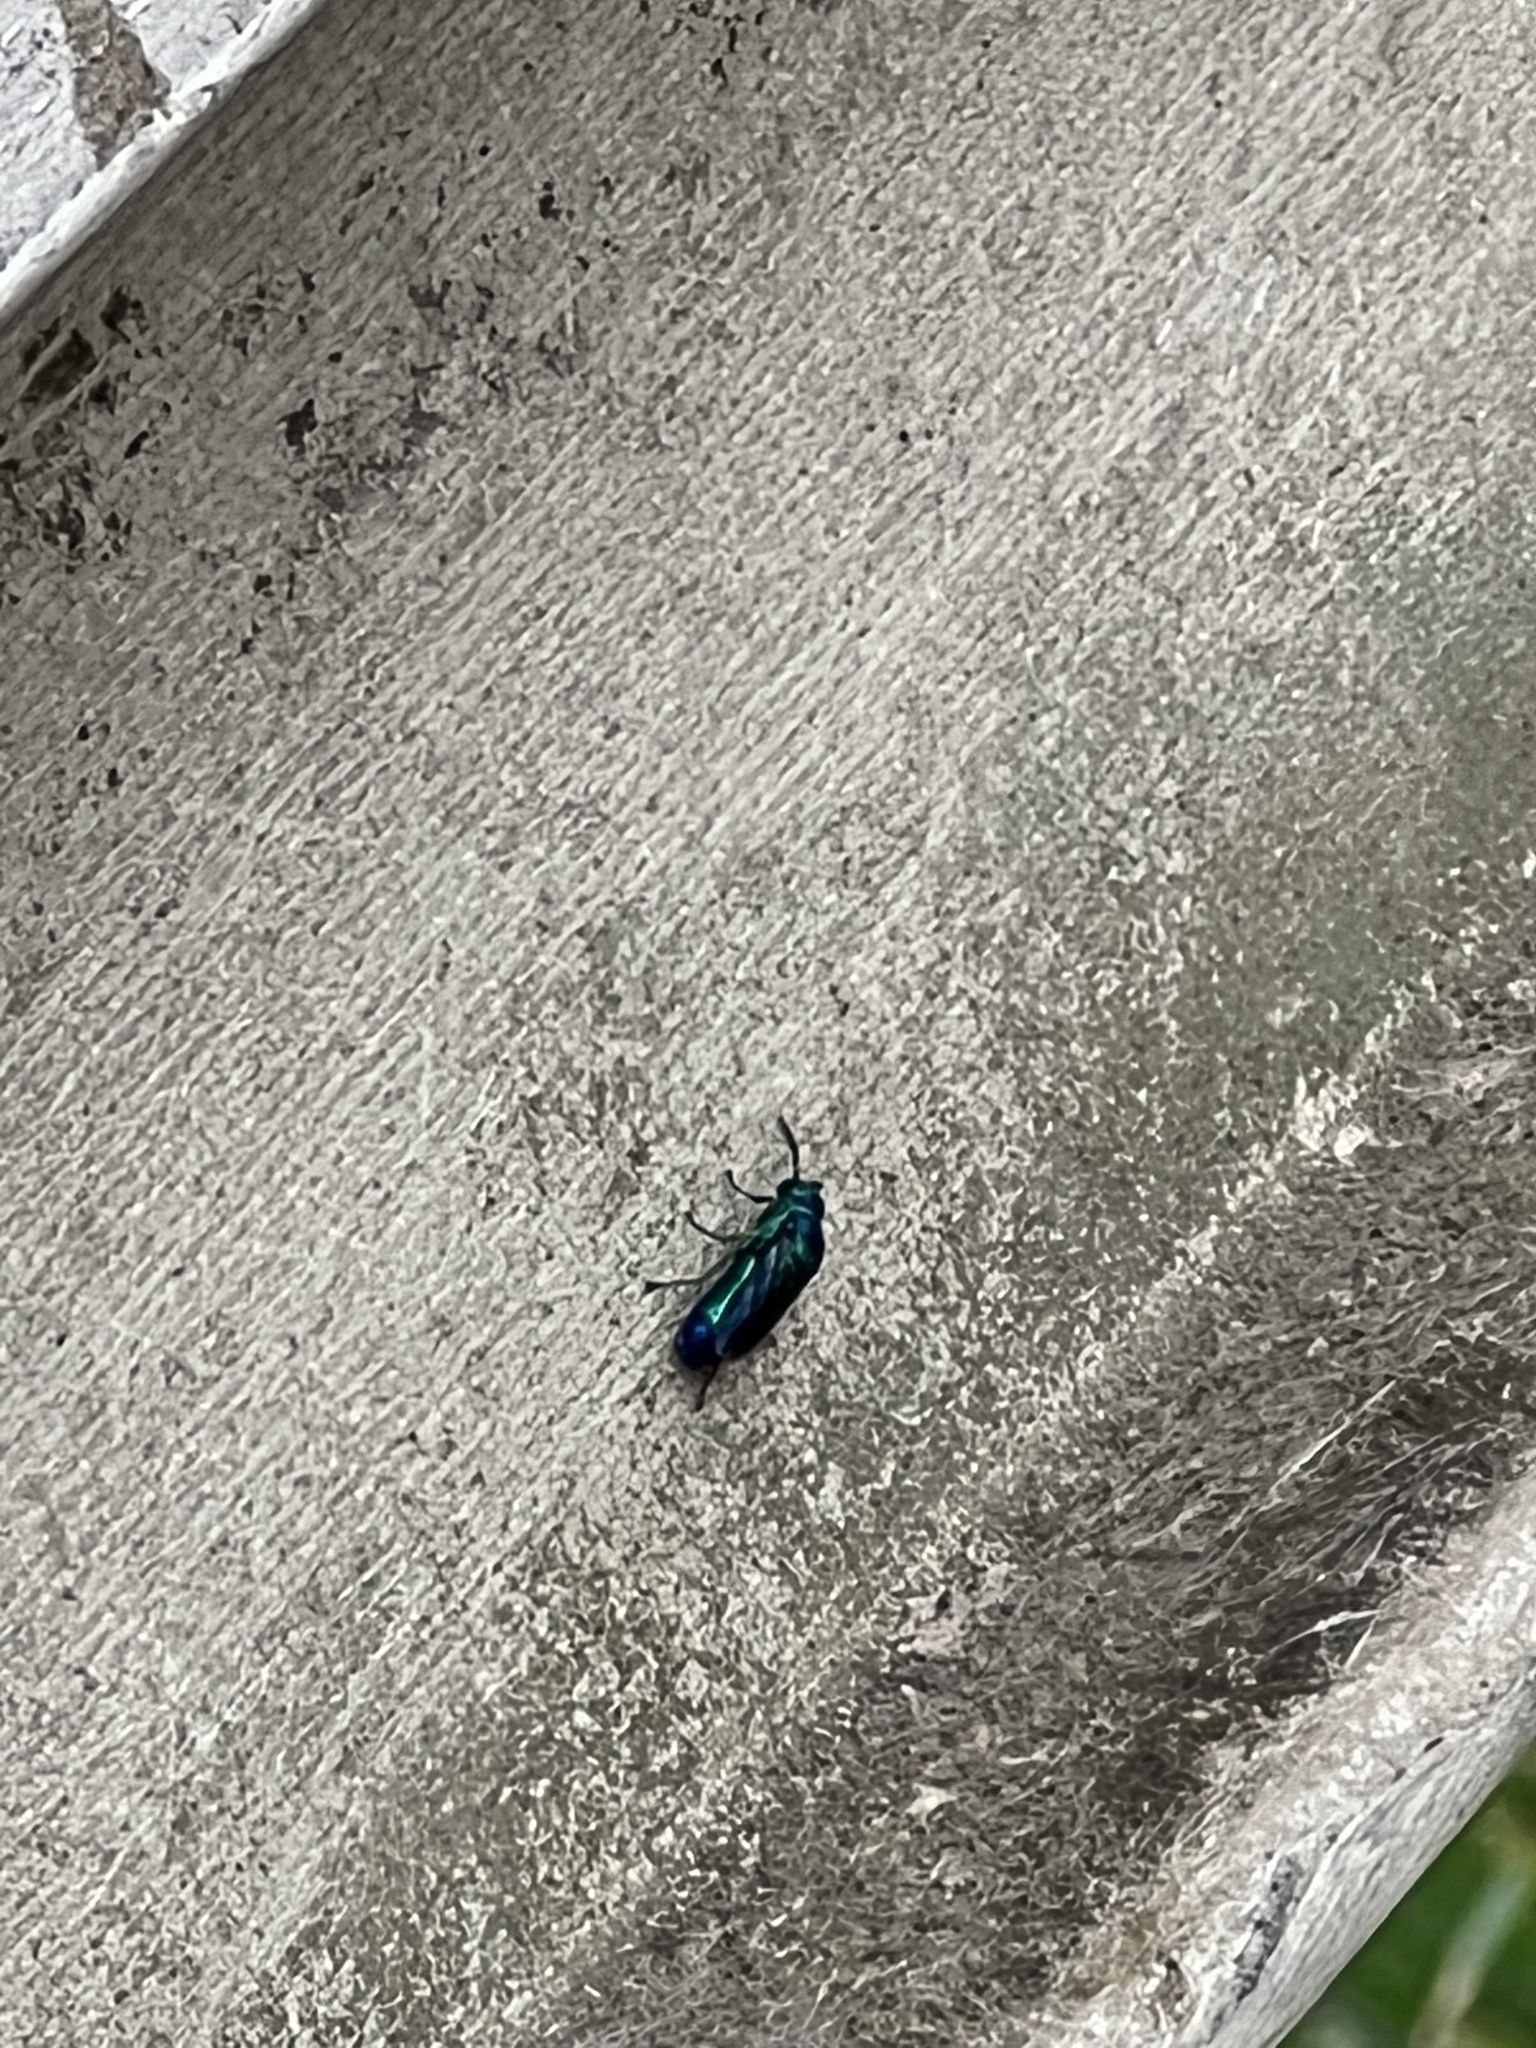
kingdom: Animalia
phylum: Arthropoda
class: Insecta
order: Hymenoptera
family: Chrysididae
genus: Chrysis
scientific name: Chrysis angolensis
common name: Cuckoo wasp
